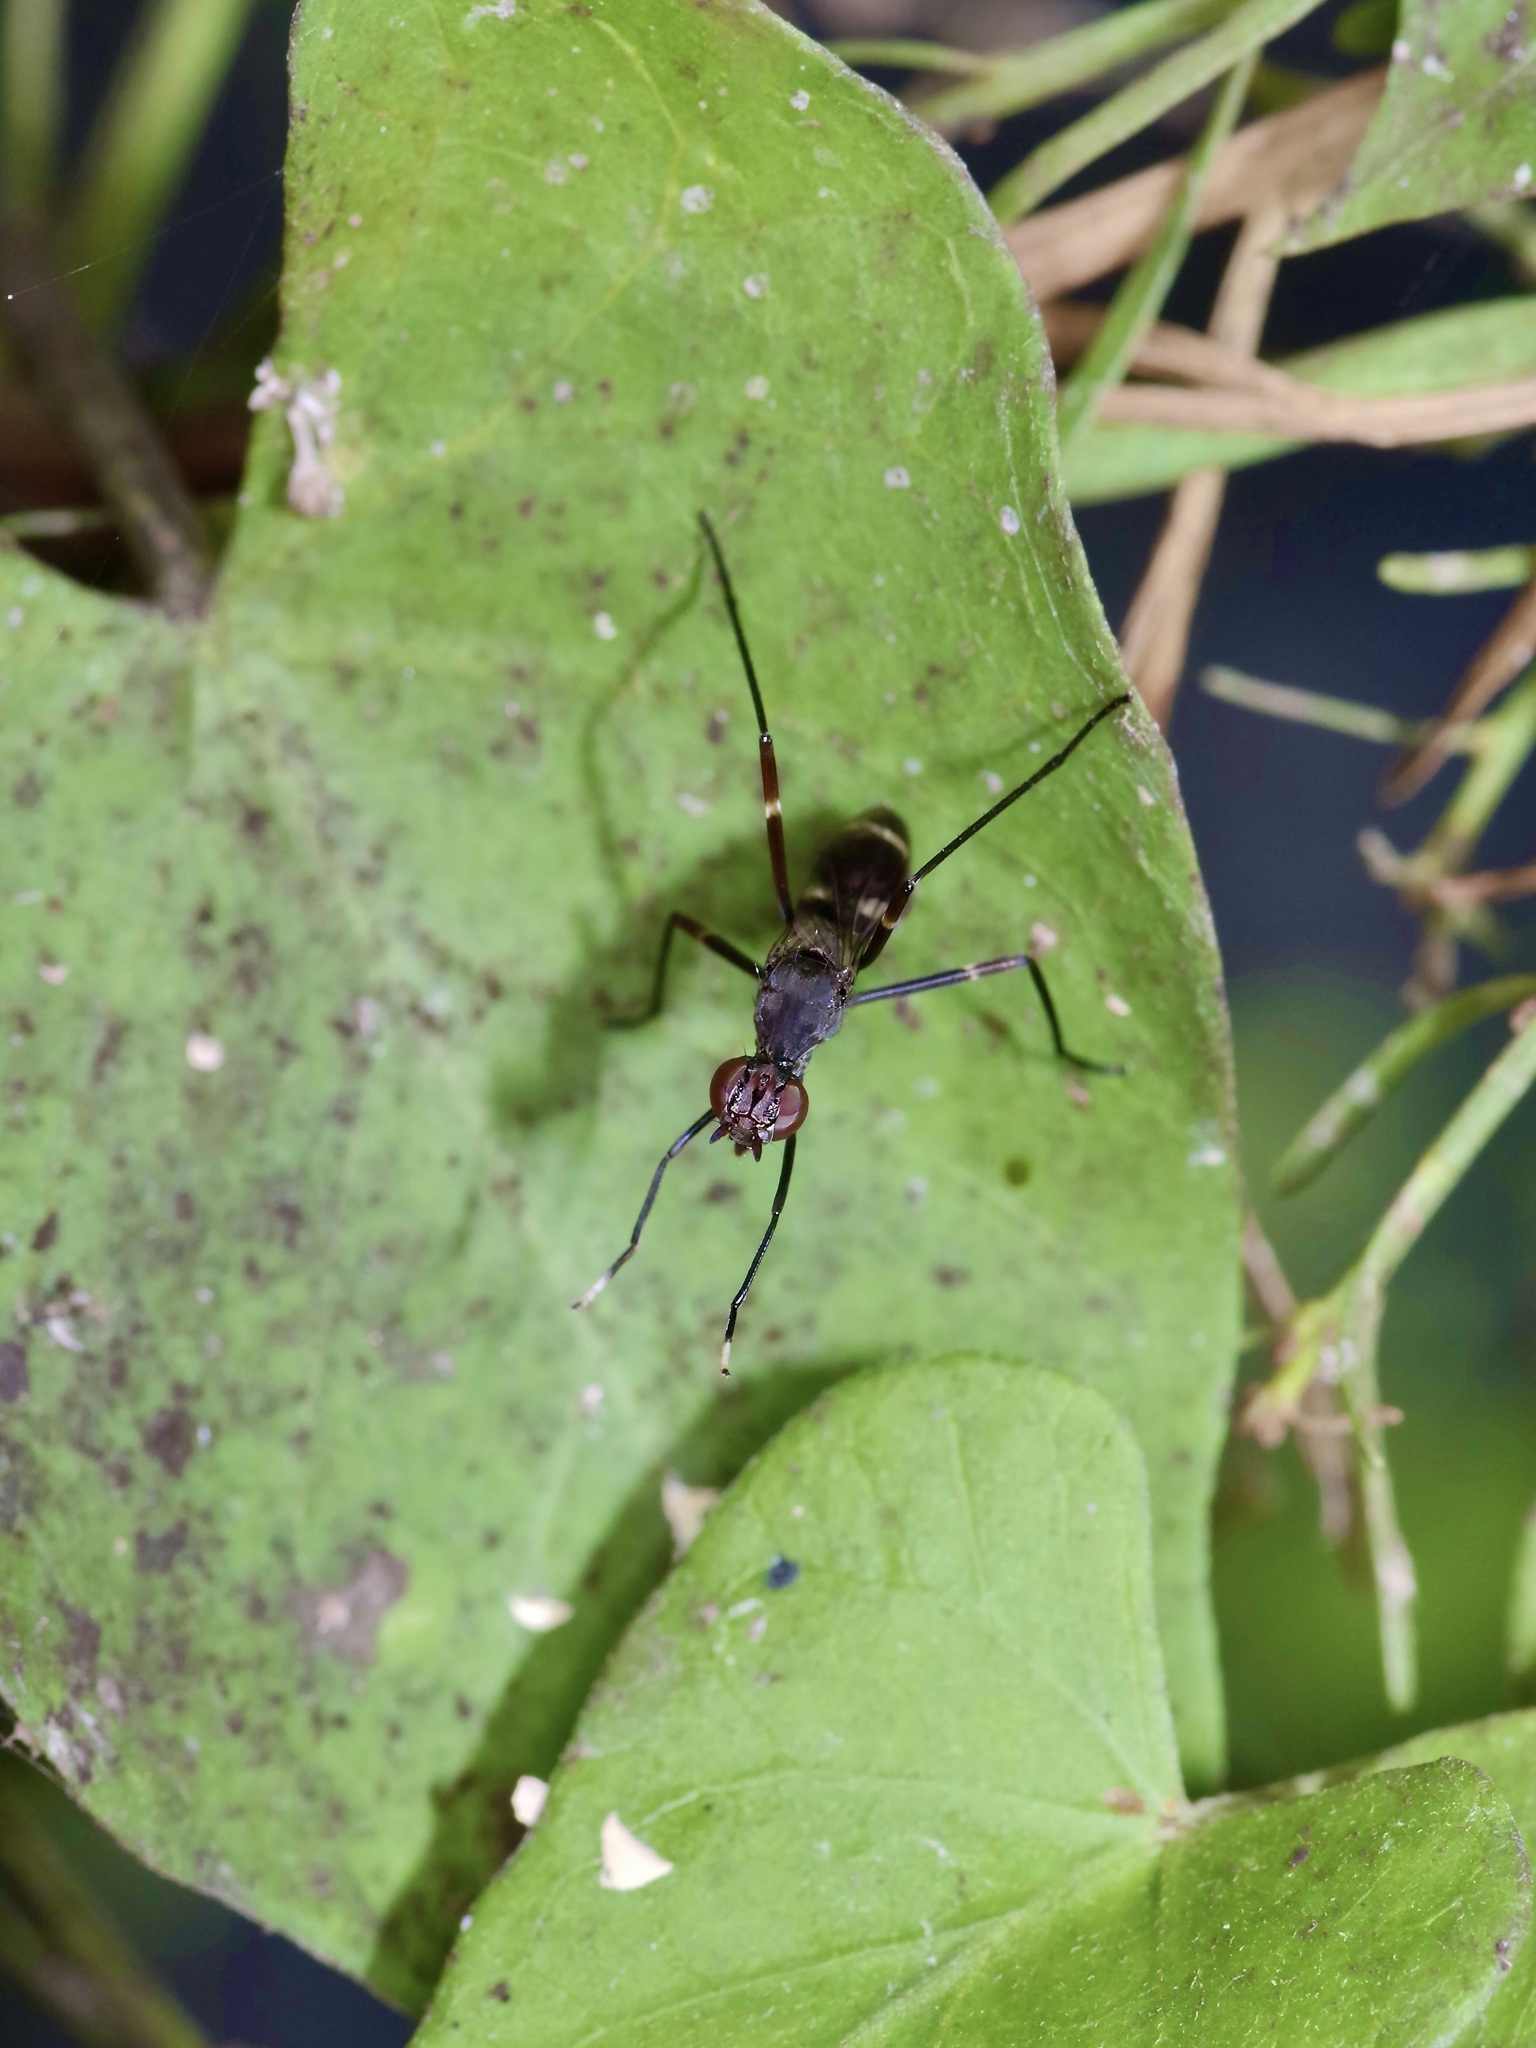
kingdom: Animalia
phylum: Arthropoda
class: Insecta
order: Diptera
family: Micropezidae
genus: Taeniaptera
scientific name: Taeniaptera lasciva
